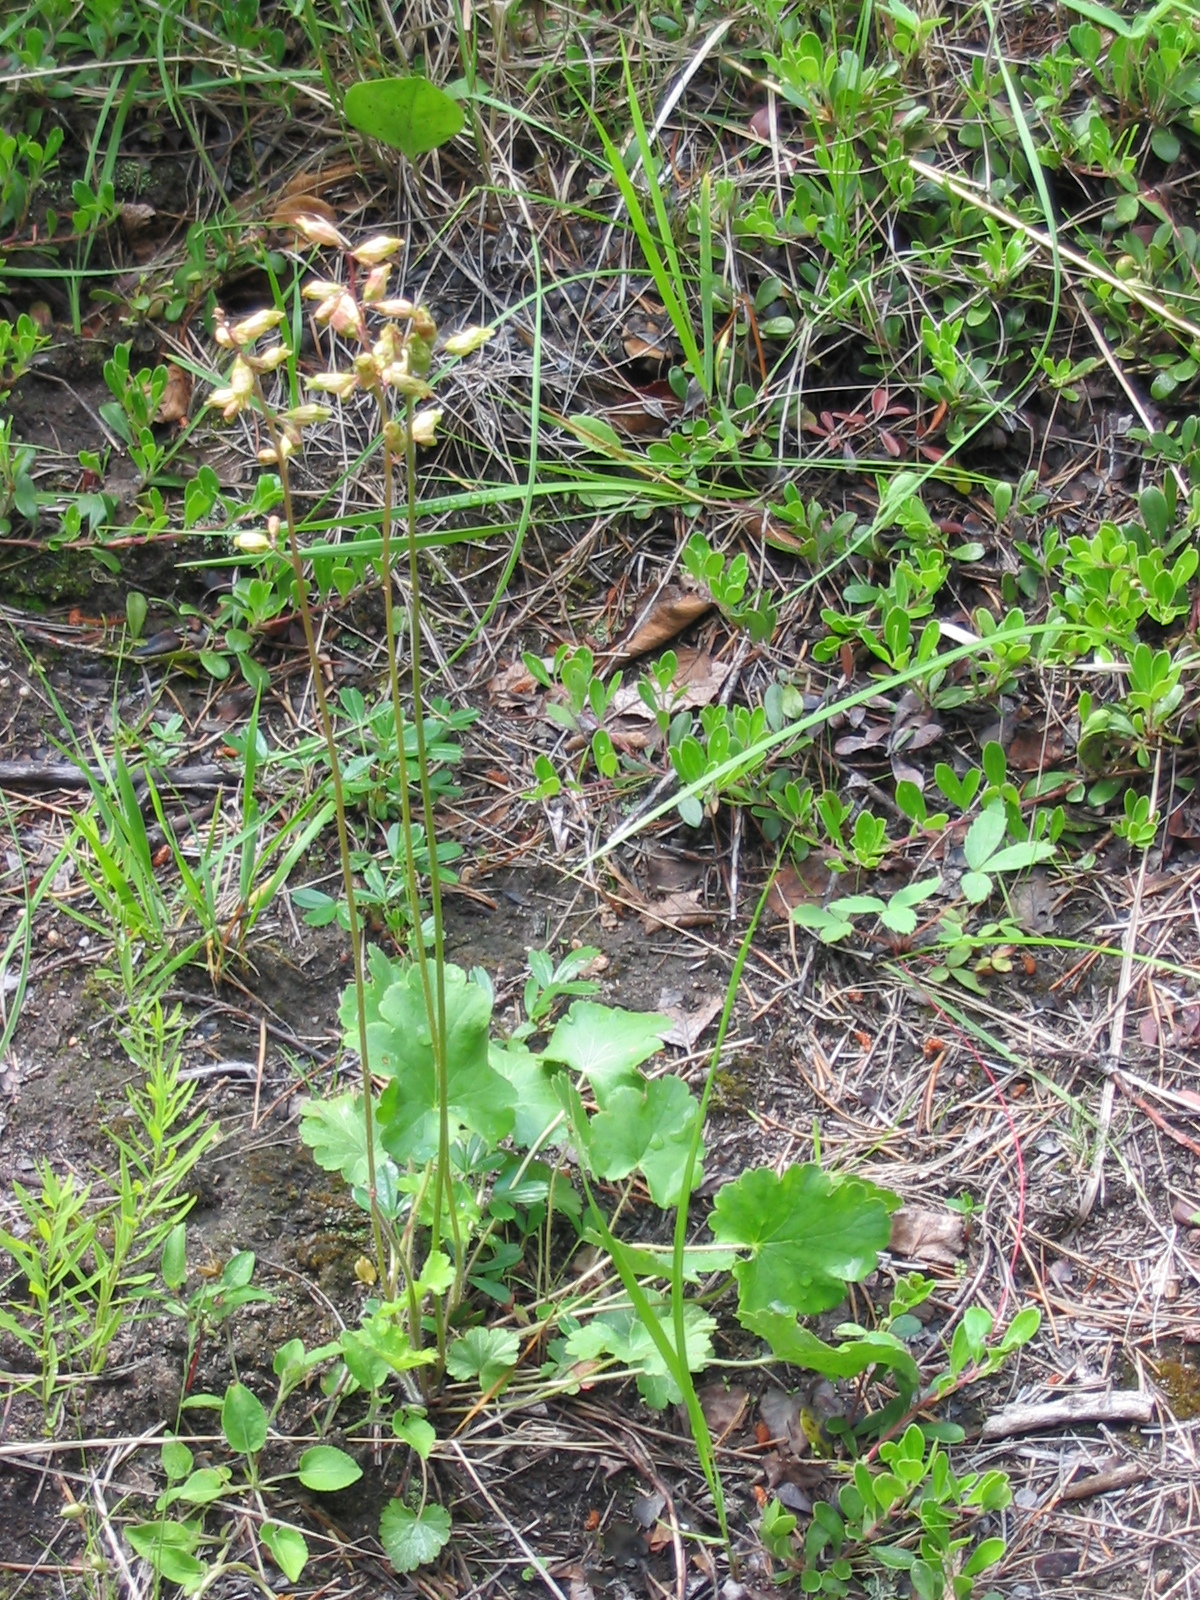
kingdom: Plantae
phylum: Tracheophyta
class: Magnoliopsida
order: Saxifragales
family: Saxifragaceae
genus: Heuchera
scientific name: Heuchera richardsonii
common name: Richardson's alumroot
